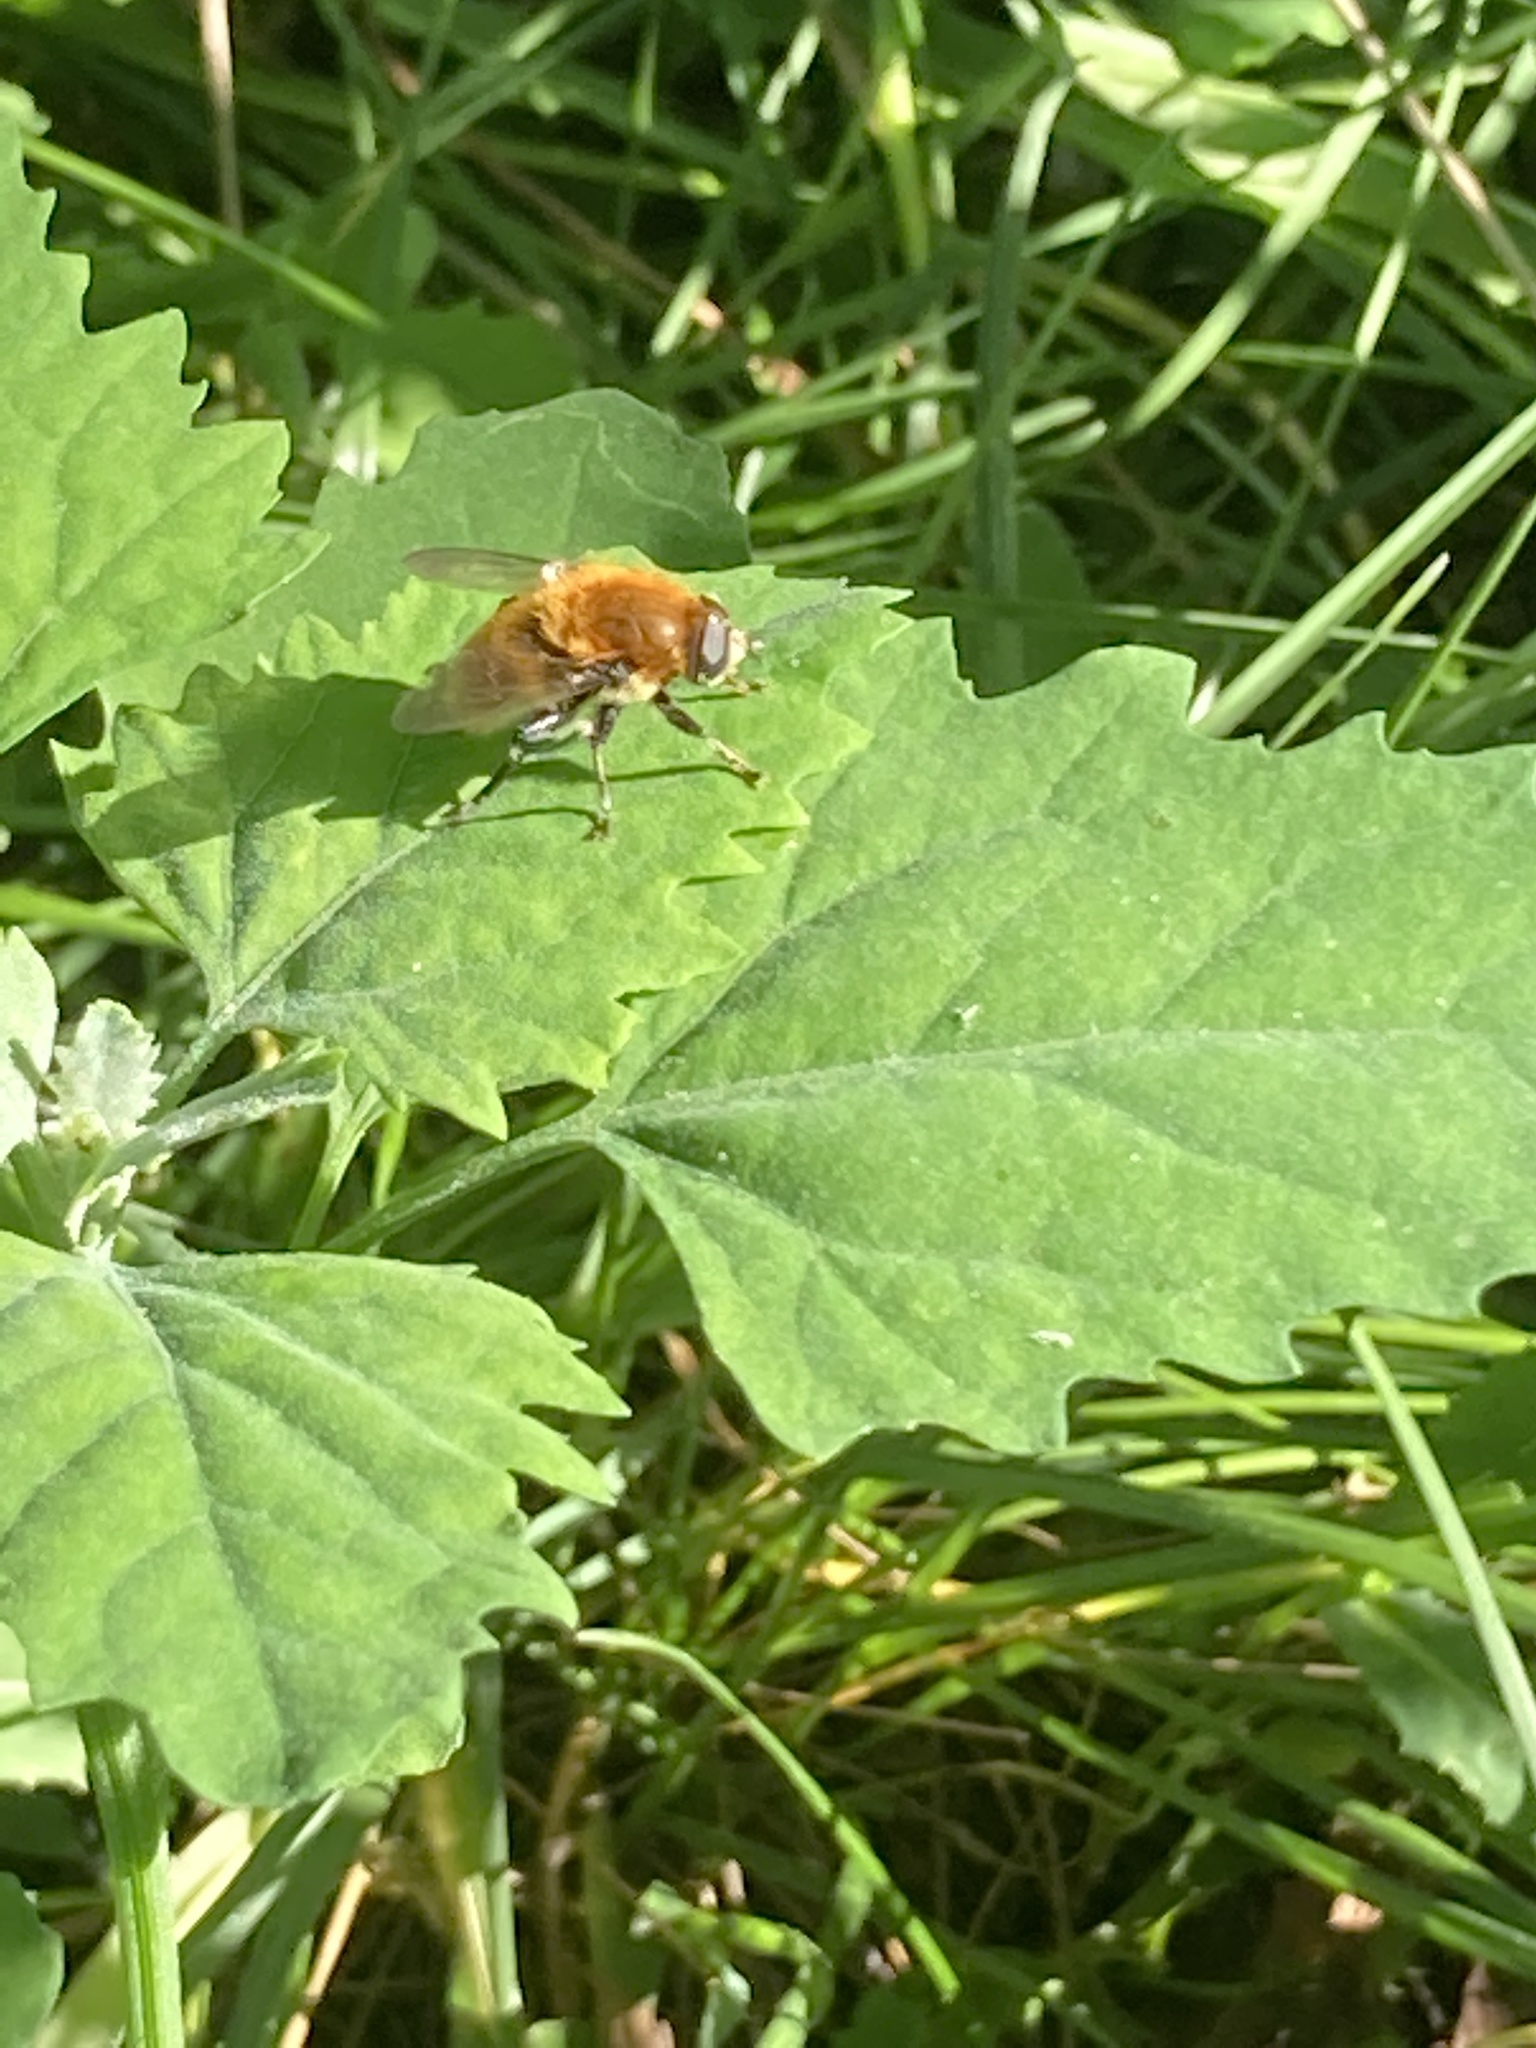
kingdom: Animalia
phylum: Arthropoda
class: Insecta
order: Diptera
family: Syrphidae
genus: Merodon
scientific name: Merodon equestris
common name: Greater bulb-fly
